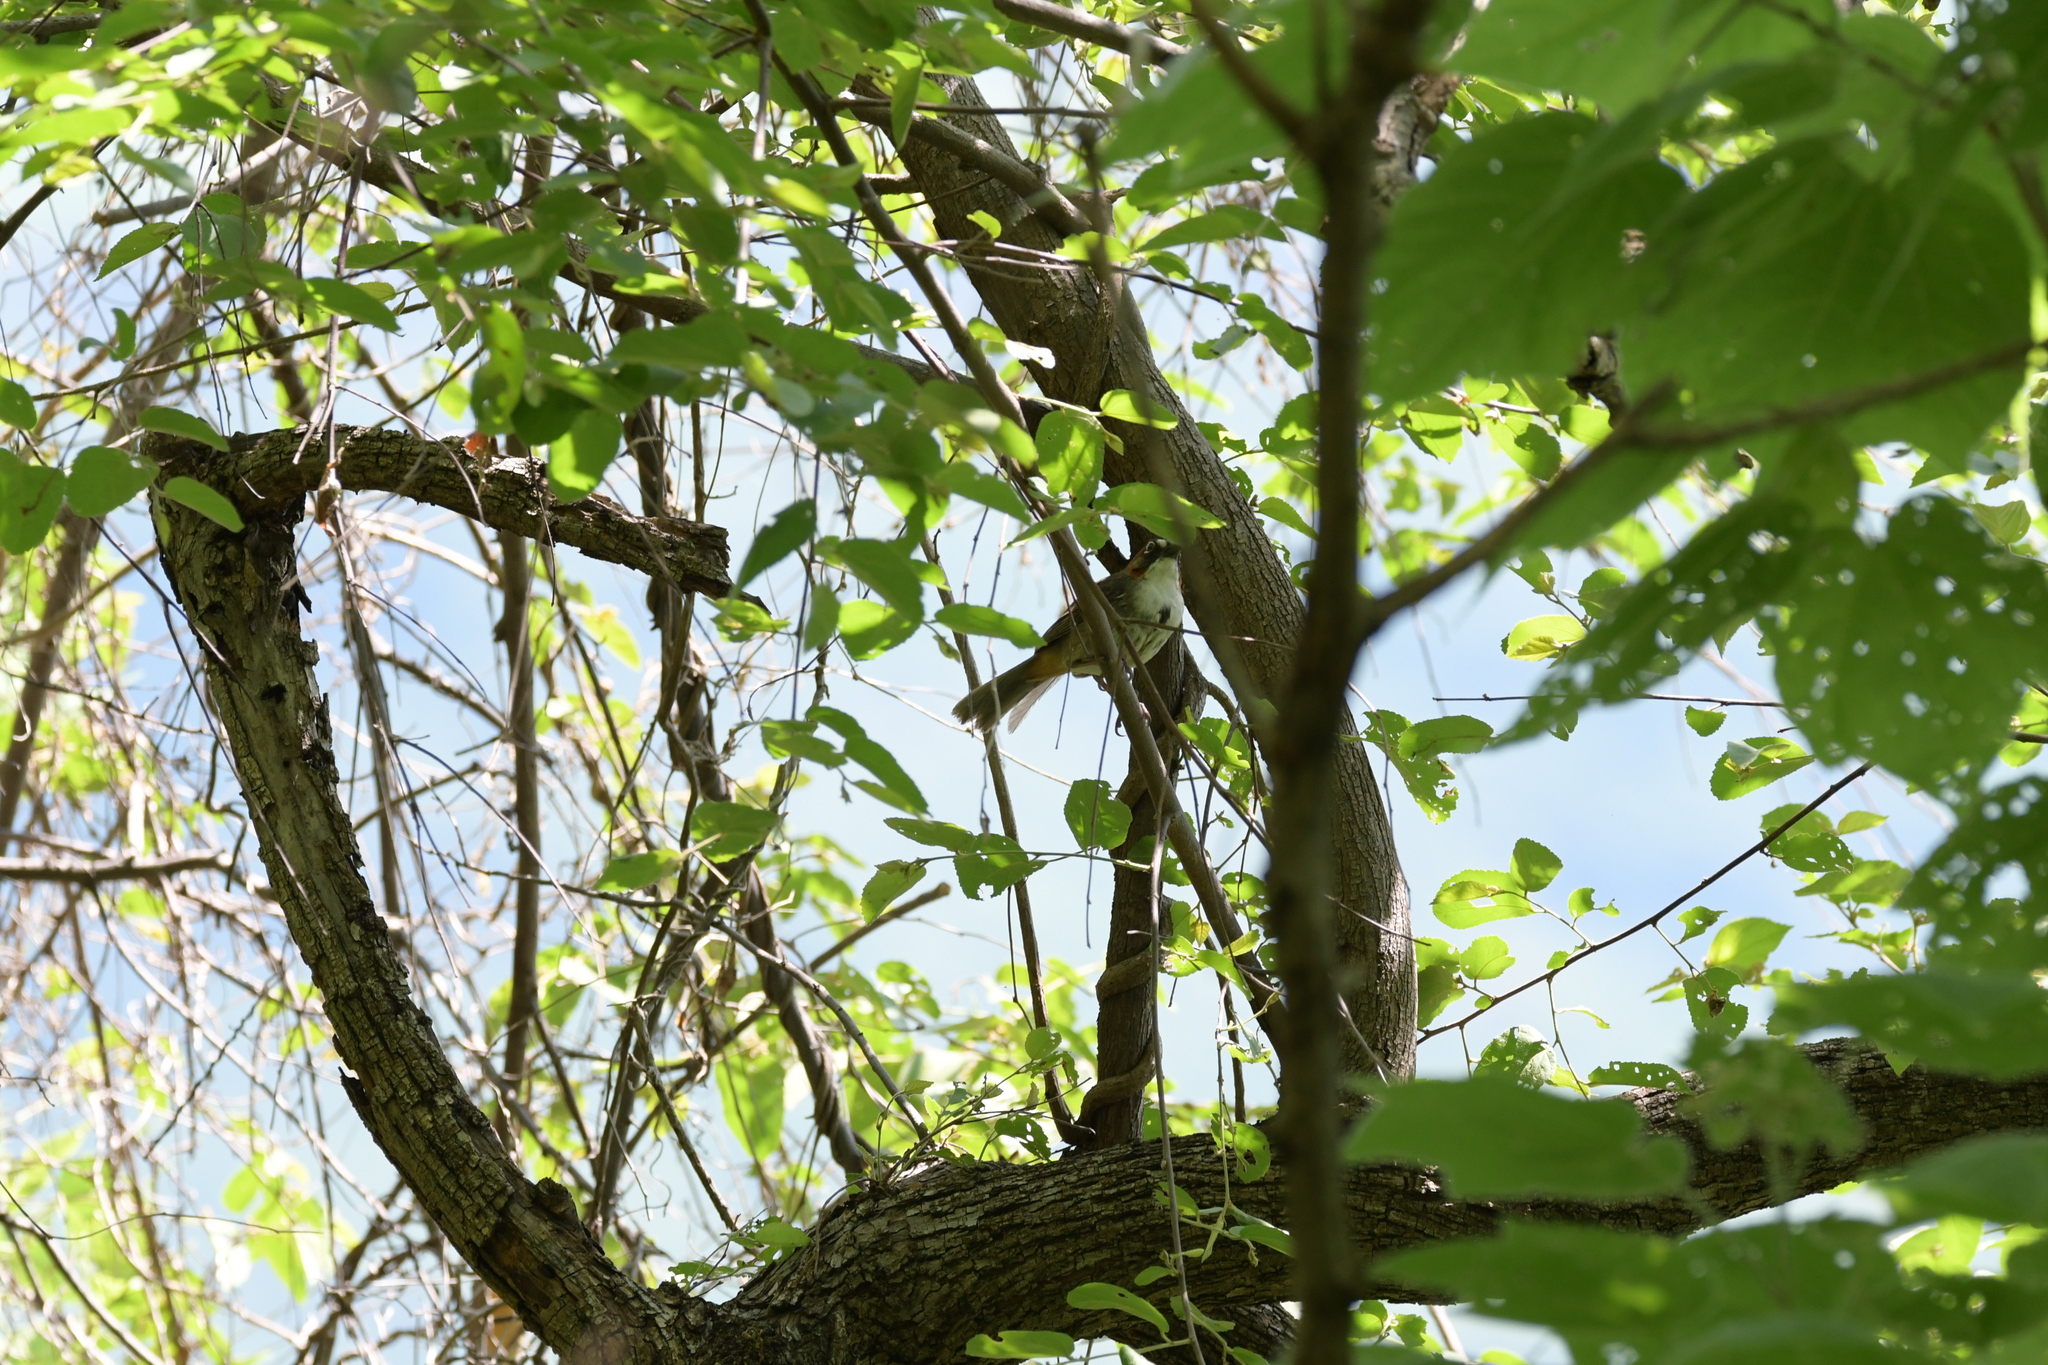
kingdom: Animalia
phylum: Chordata
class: Aves
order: Passeriformes
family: Passerellidae
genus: Melozone
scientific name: Melozone kieneri
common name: Rusty-crowned ground-sparrow
